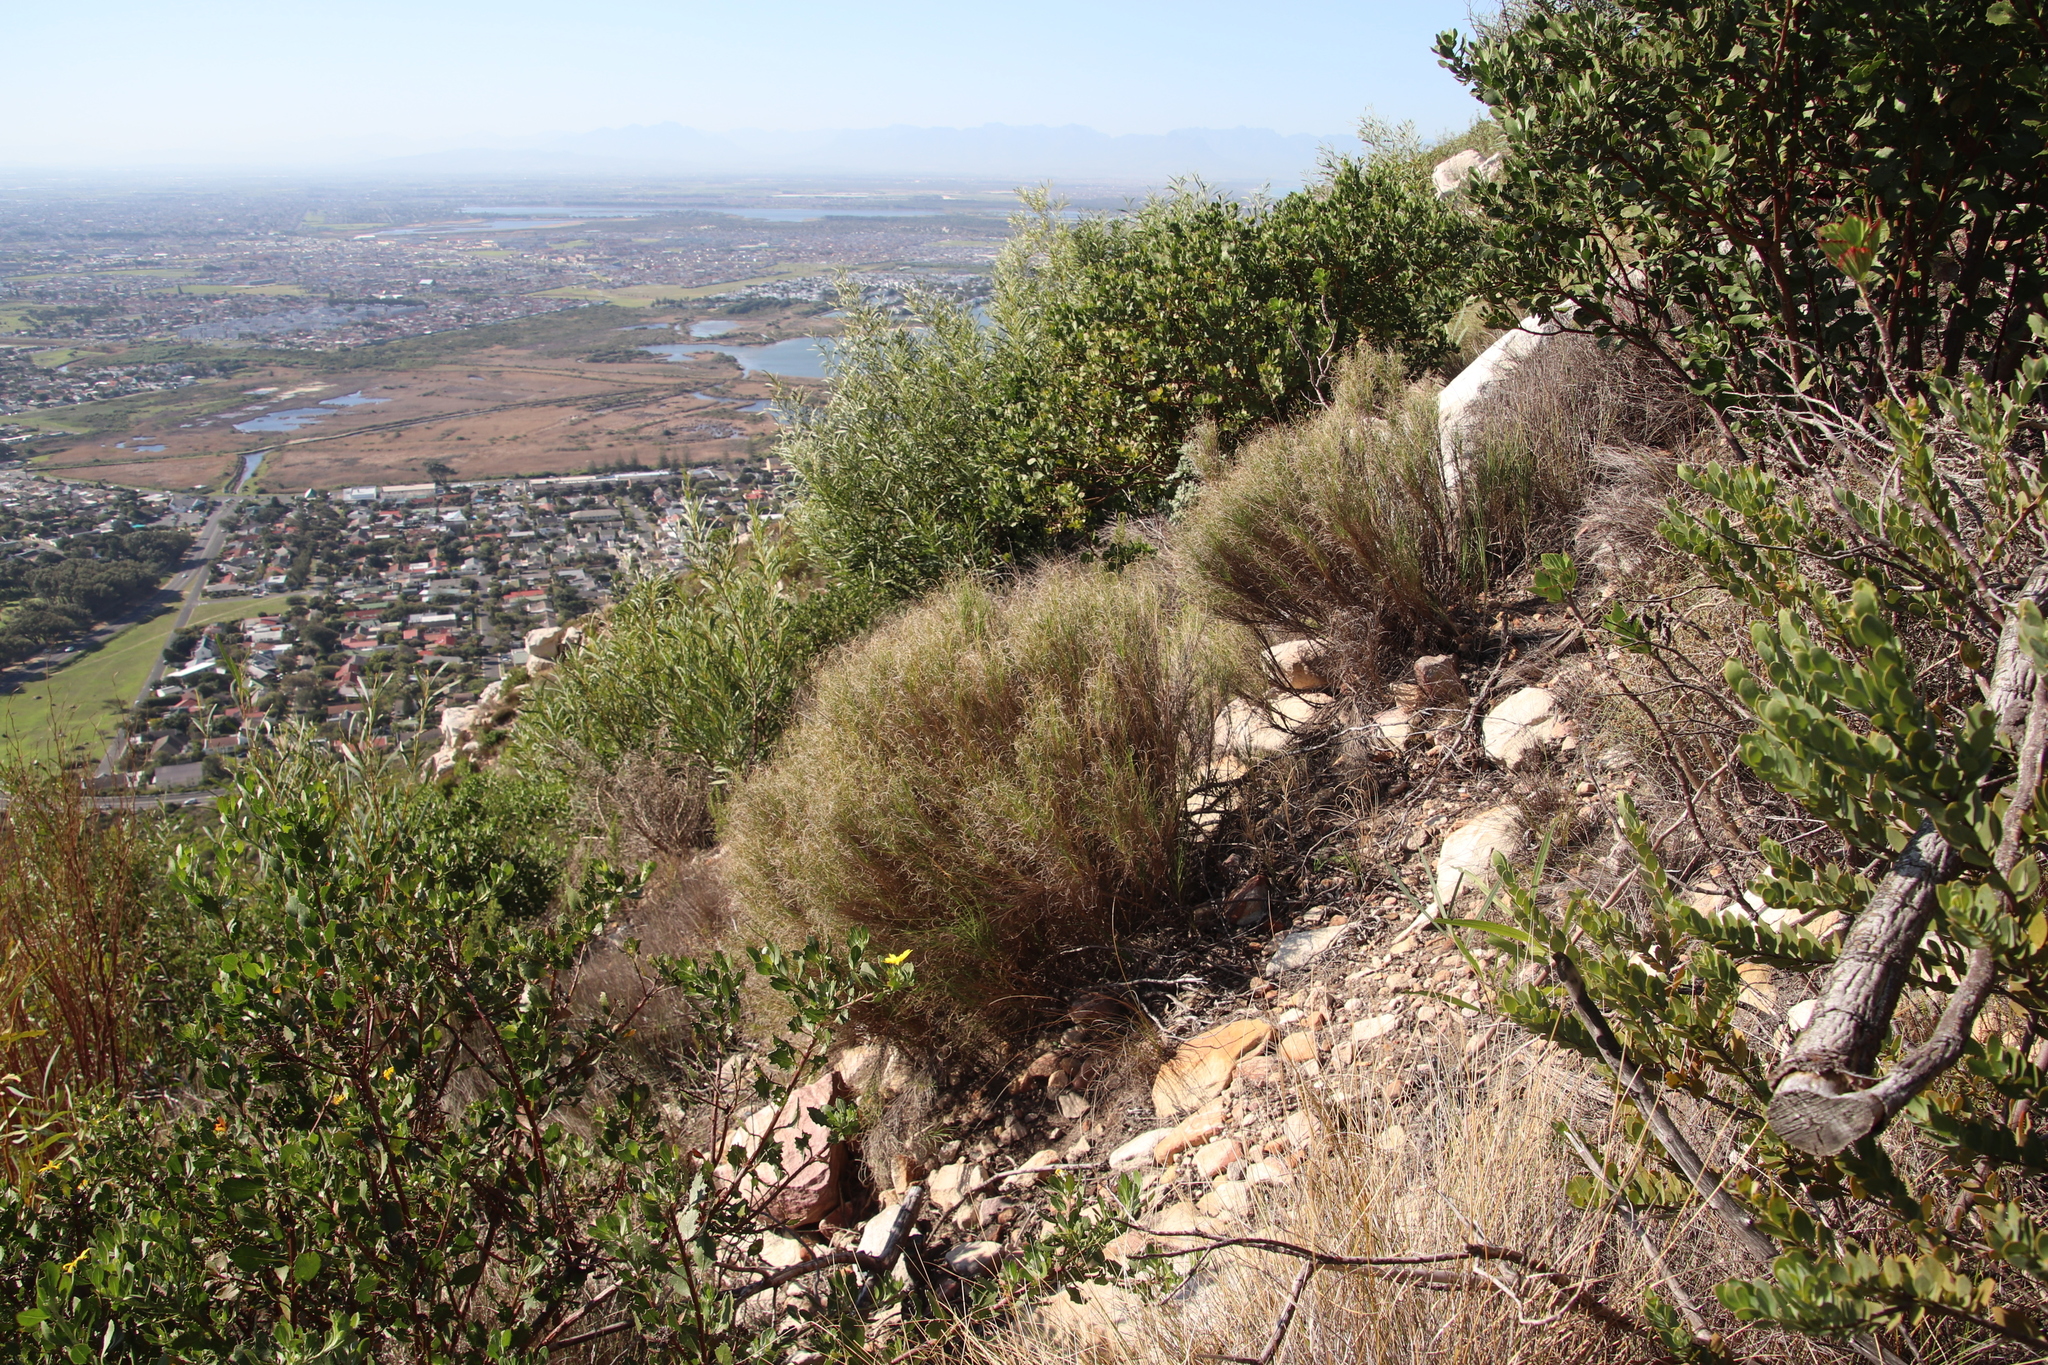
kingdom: Plantae
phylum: Tracheophyta
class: Liliopsida
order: Poales
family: Poaceae
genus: Pseudopentameris
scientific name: Pseudopentameris macrantha
